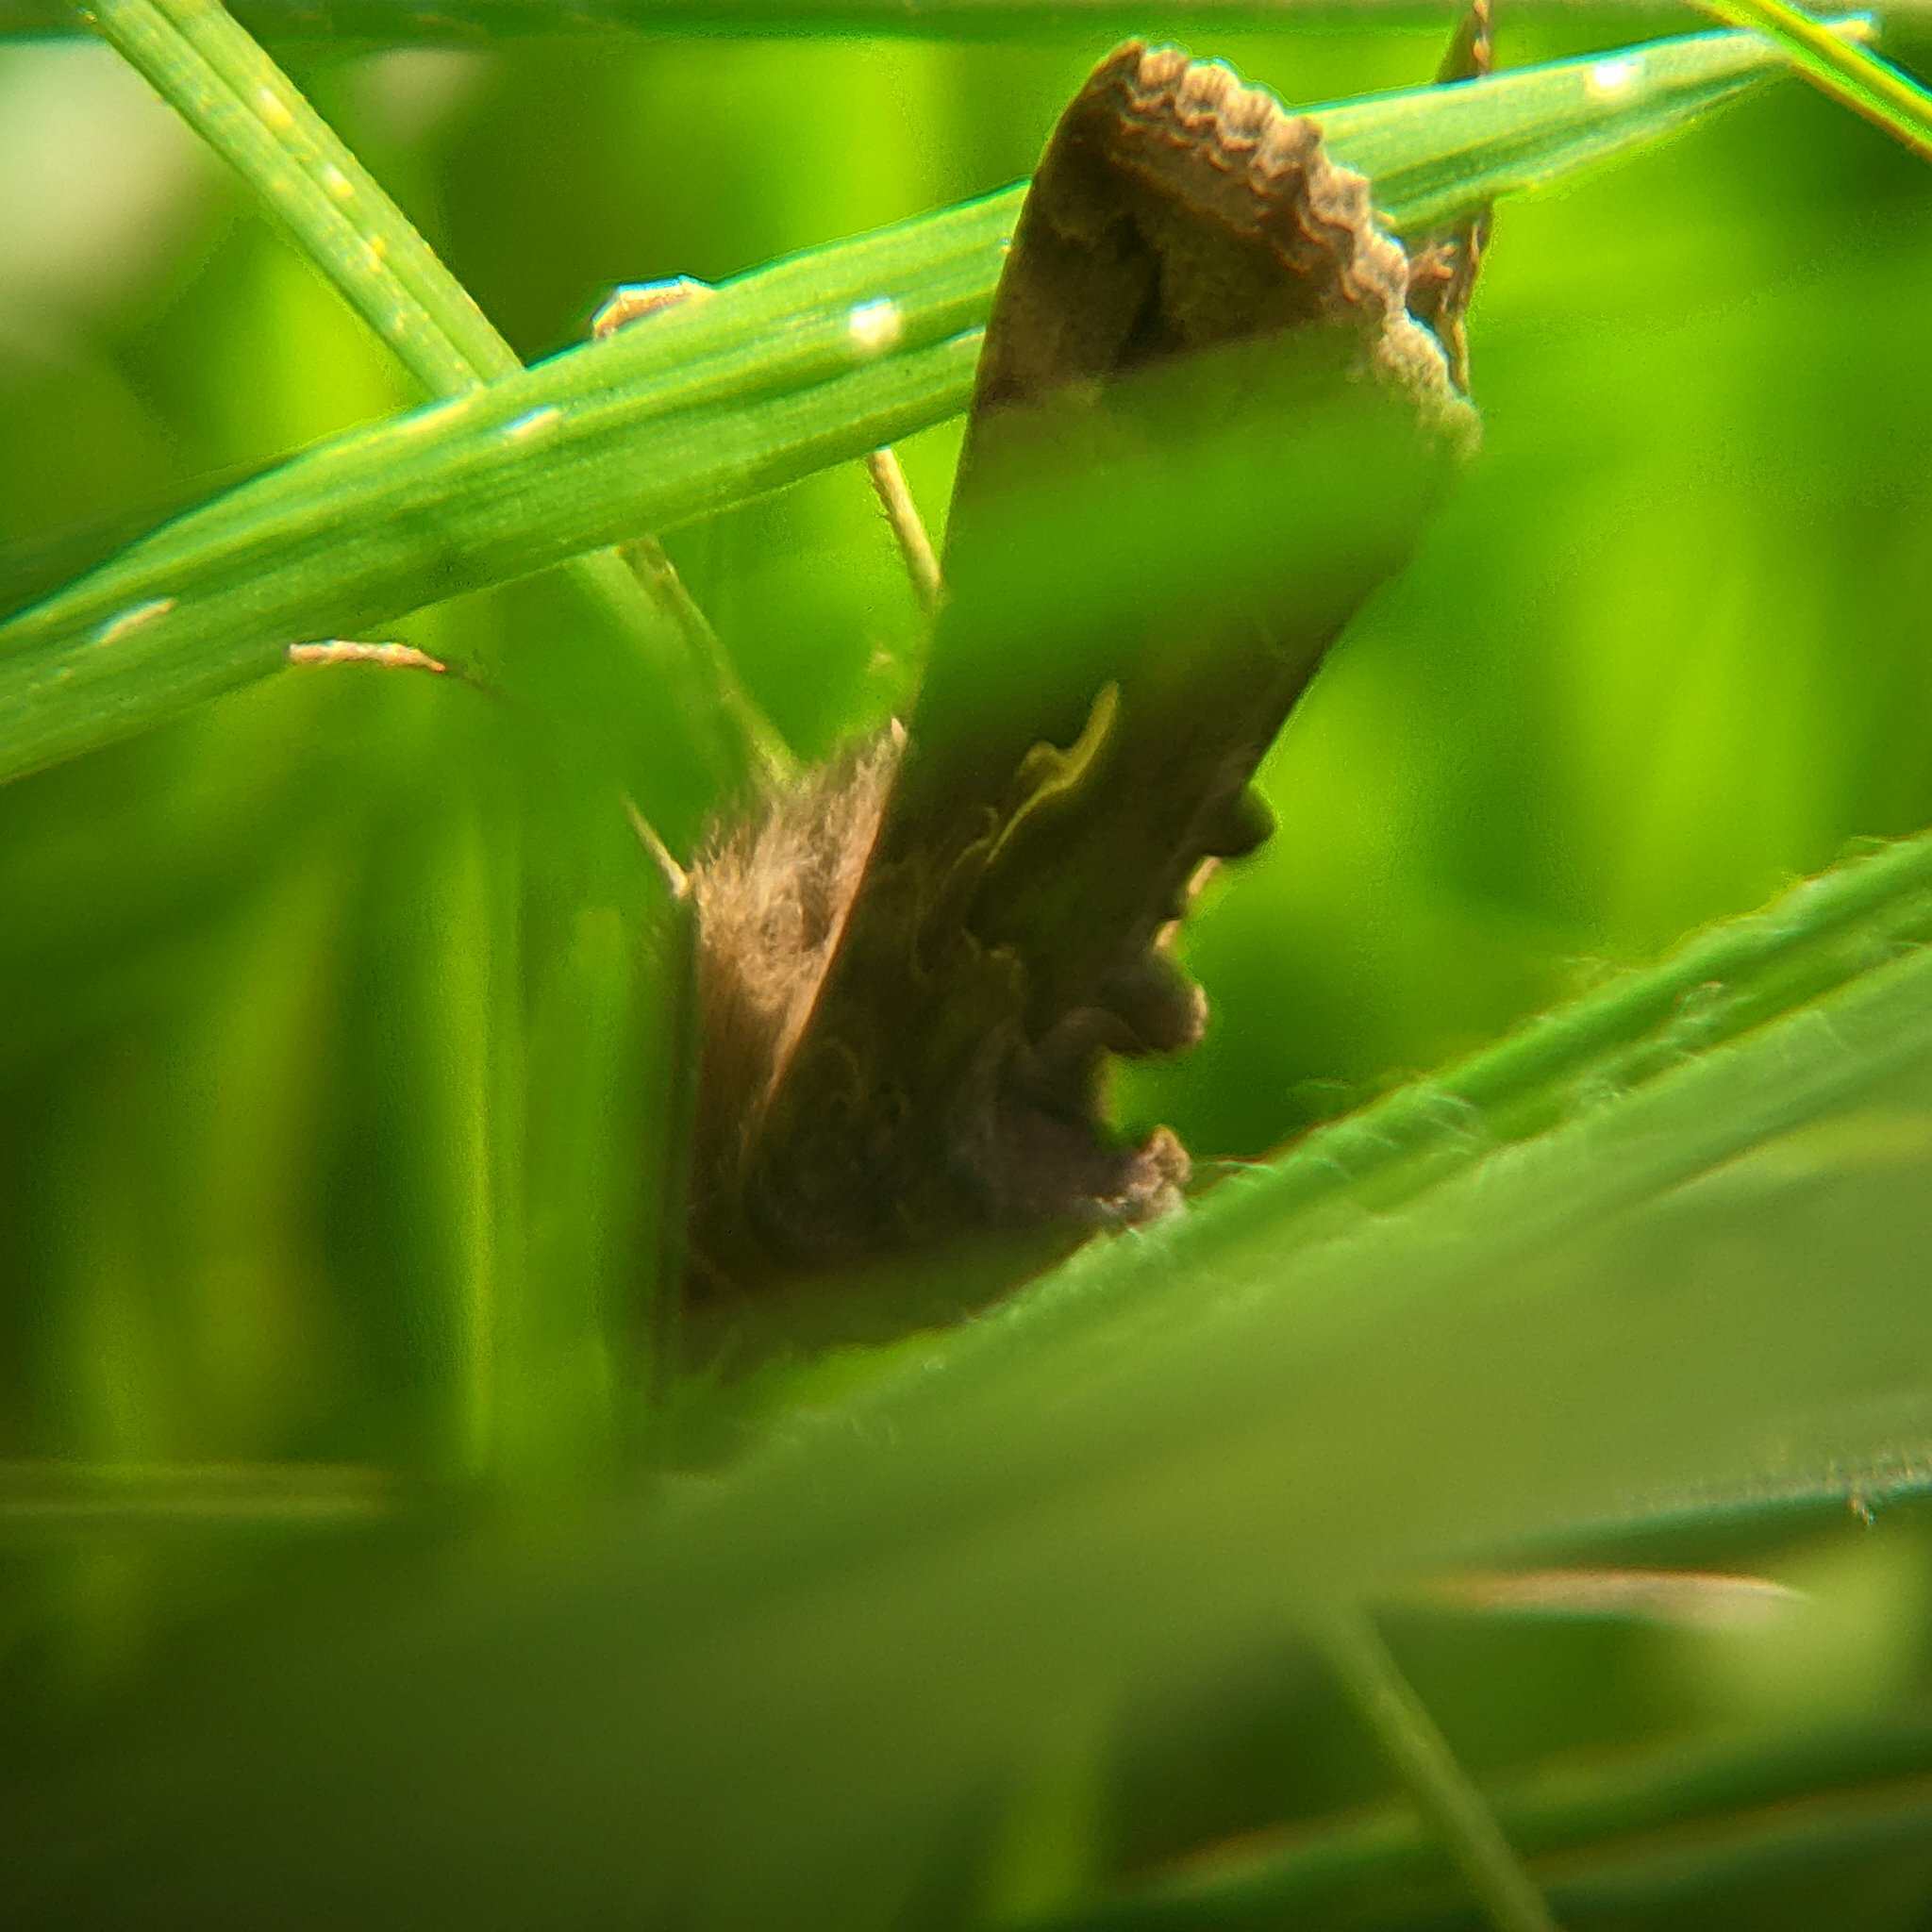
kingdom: Animalia
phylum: Arthropoda
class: Insecta
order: Lepidoptera
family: Noctuidae
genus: Autographa
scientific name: Autographa gamma
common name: Silver y
